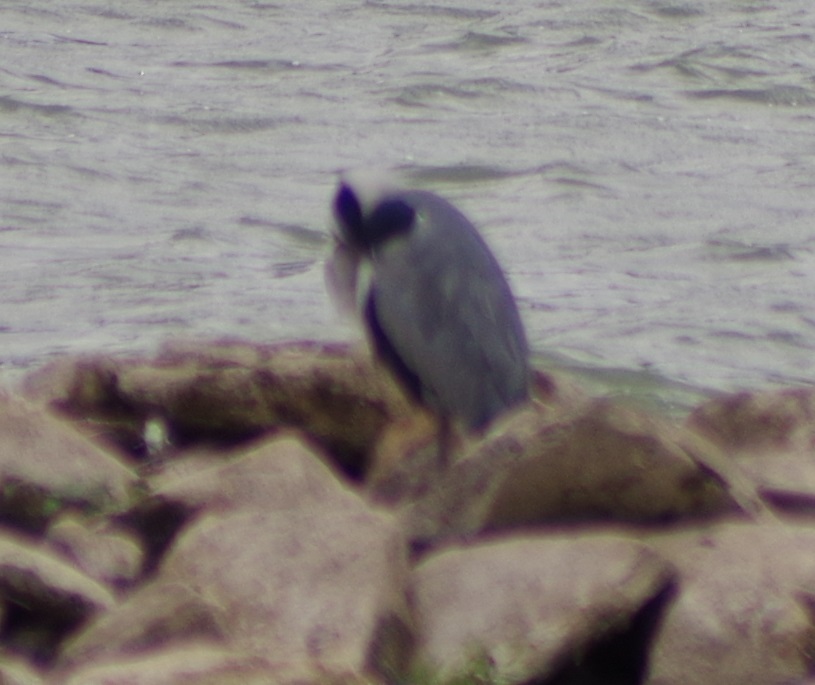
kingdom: Animalia
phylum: Chordata
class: Aves
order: Pelecaniformes
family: Ardeidae
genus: Ardea
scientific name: Ardea cinerea
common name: Grey heron
